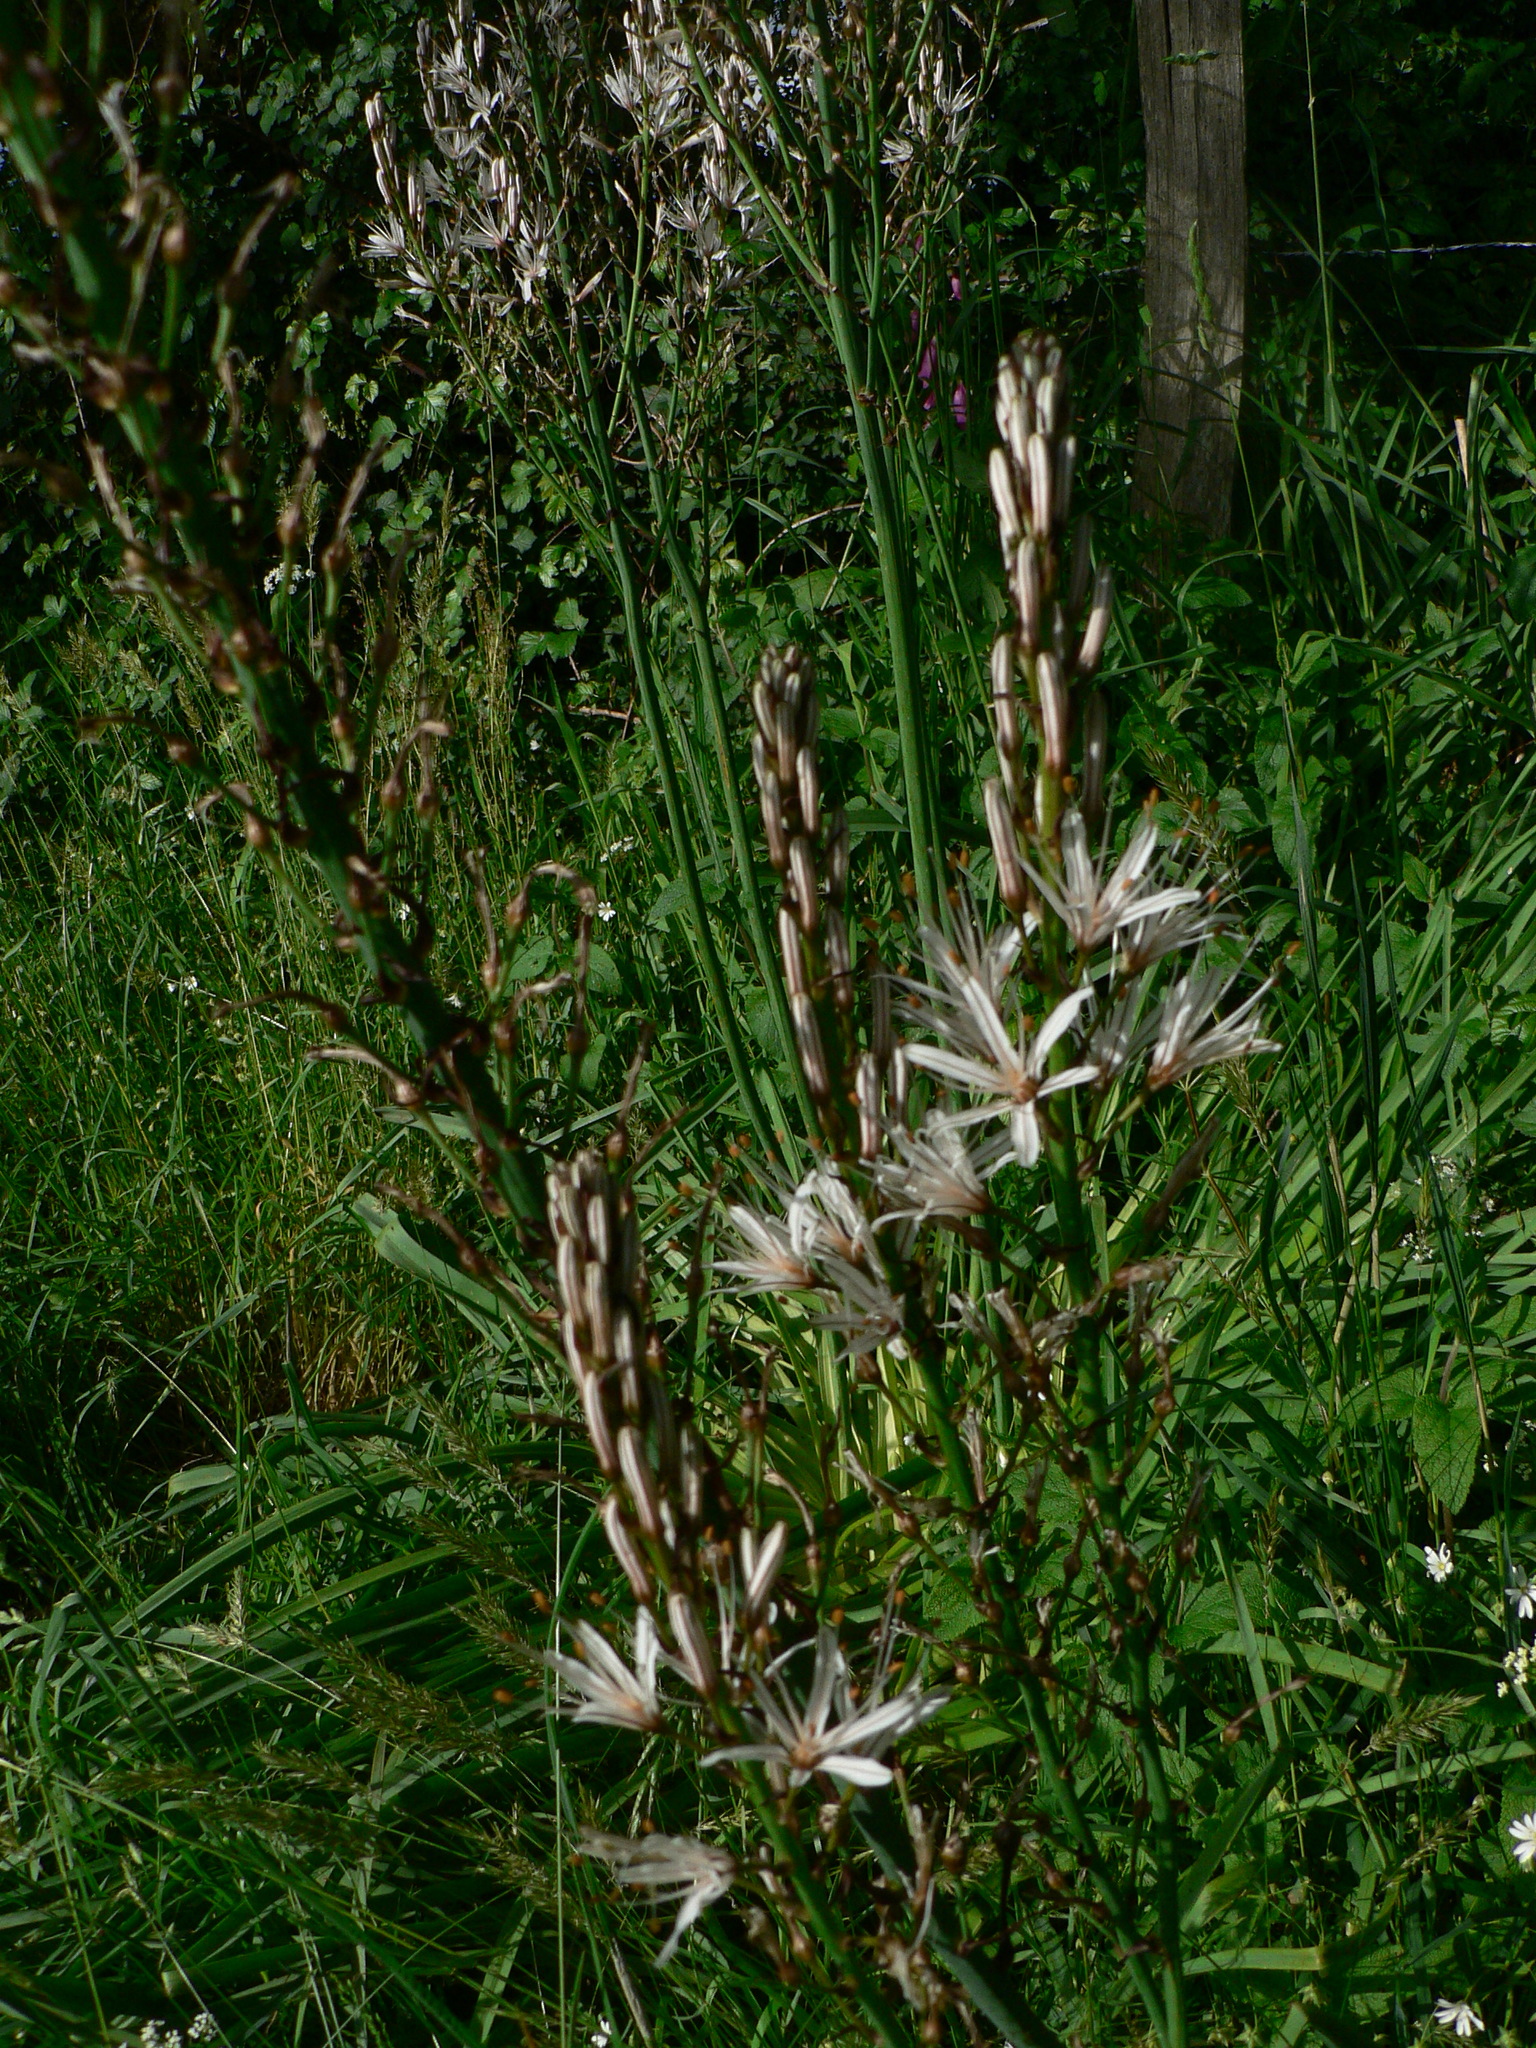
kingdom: Plantae
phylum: Tracheophyta
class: Liliopsida
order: Asparagales
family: Asphodelaceae
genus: Asphodelus
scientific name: Asphodelus albus
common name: White asphodel
